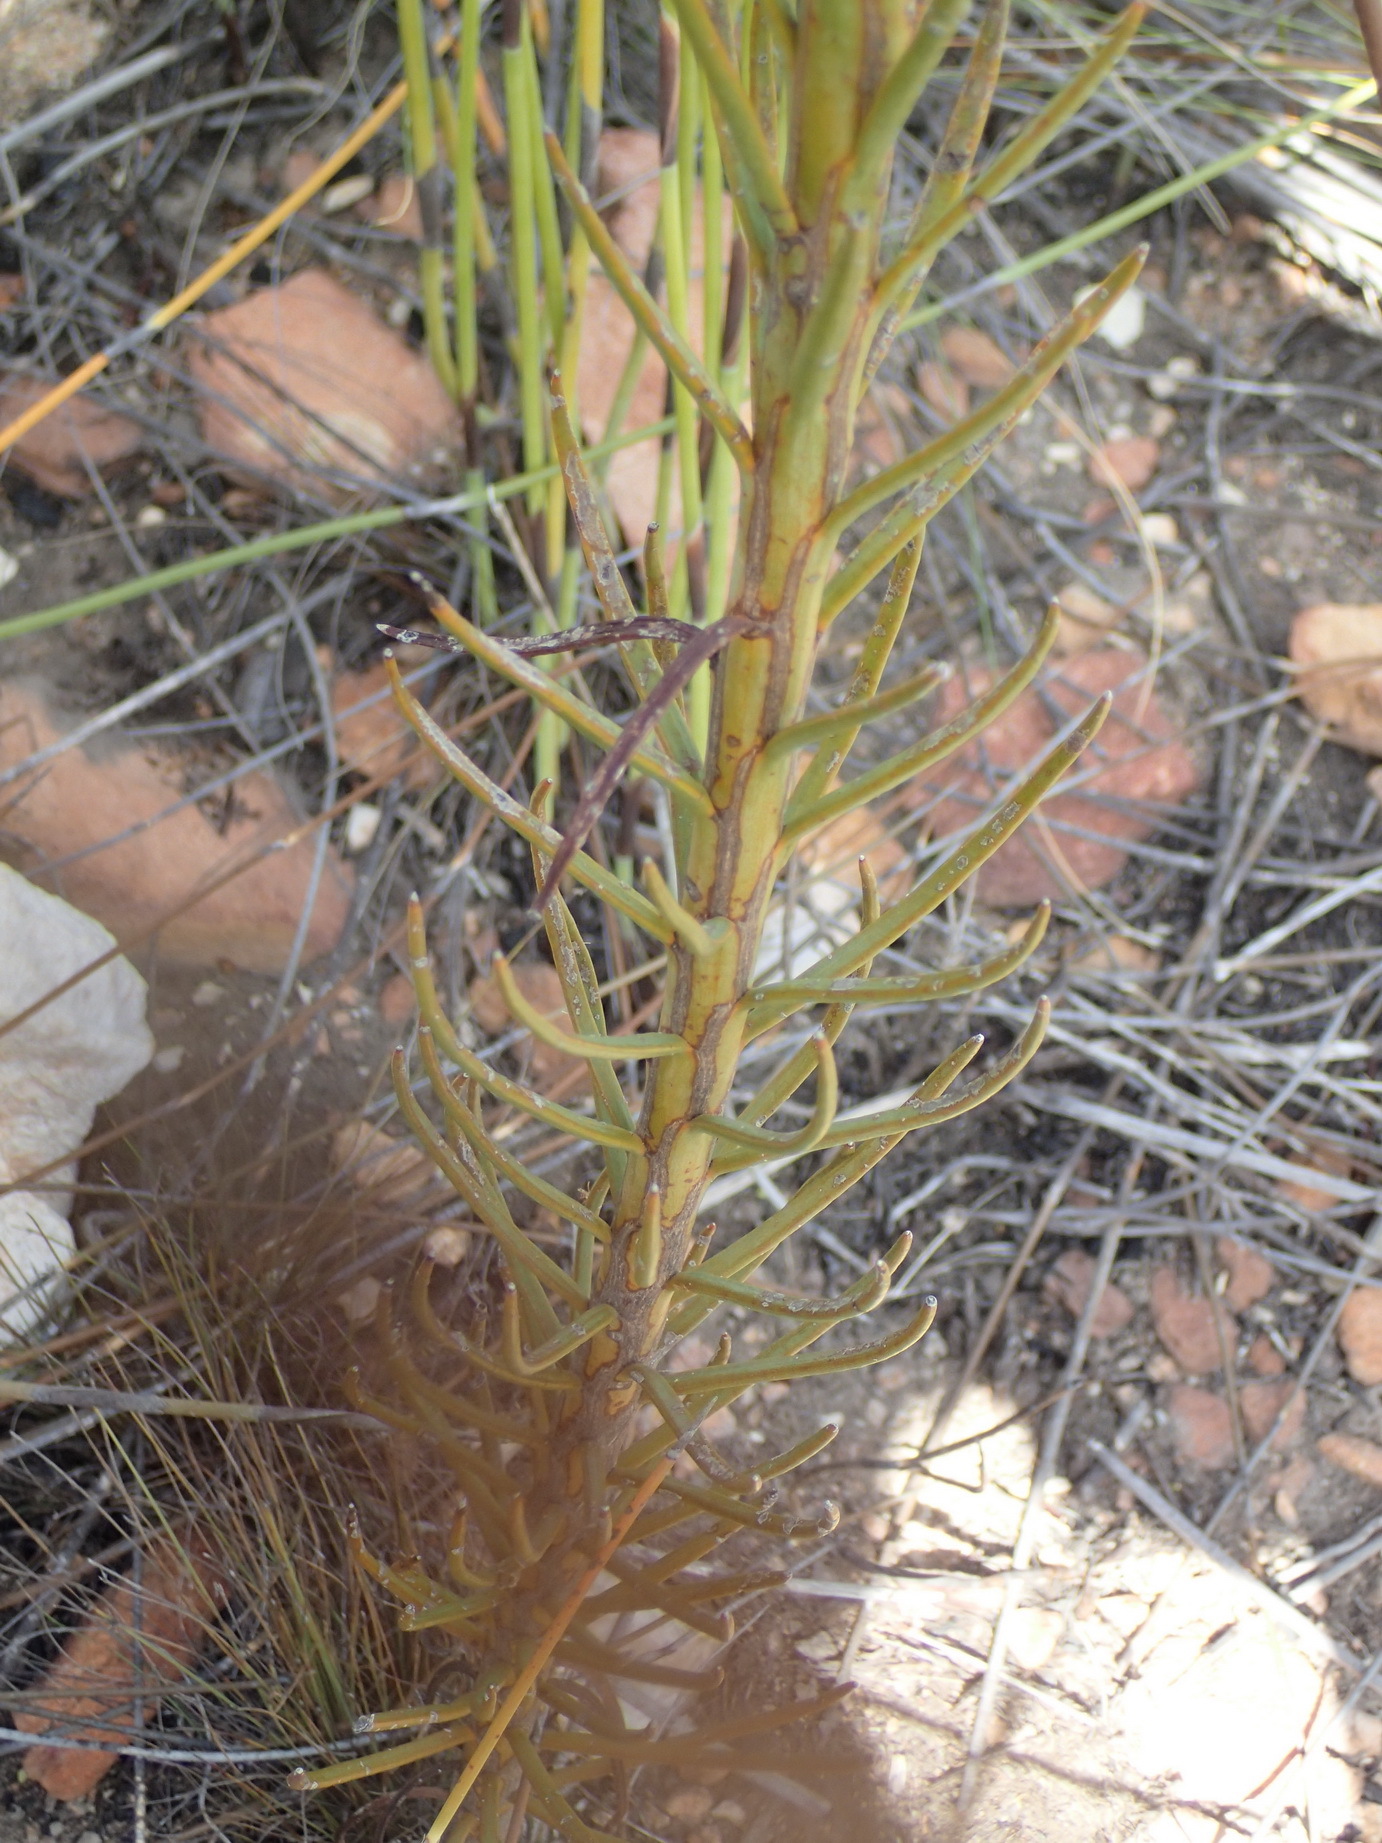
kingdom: Plantae
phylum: Tracheophyta
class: Magnoliopsida
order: Santalales
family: Thesiaceae
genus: Thesium
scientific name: Thesium strictum
